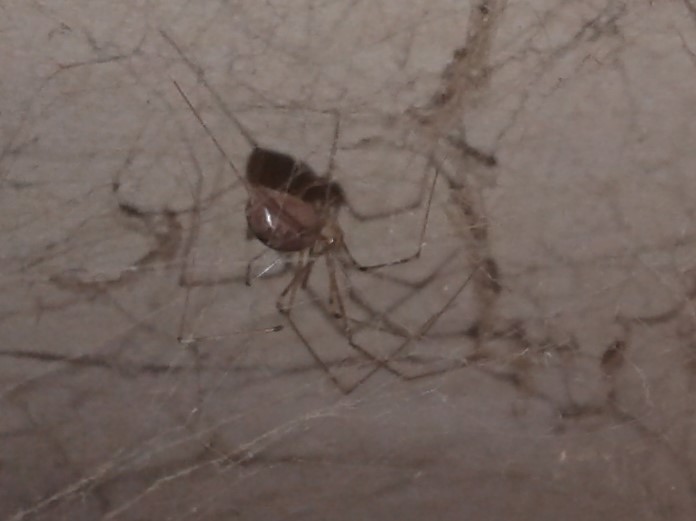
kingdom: Animalia
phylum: Arthropoda
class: Arachnida
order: Araneae
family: Pholcidae
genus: Pholcus
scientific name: Pholcus phalangioides
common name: Longbodied cellar spider
